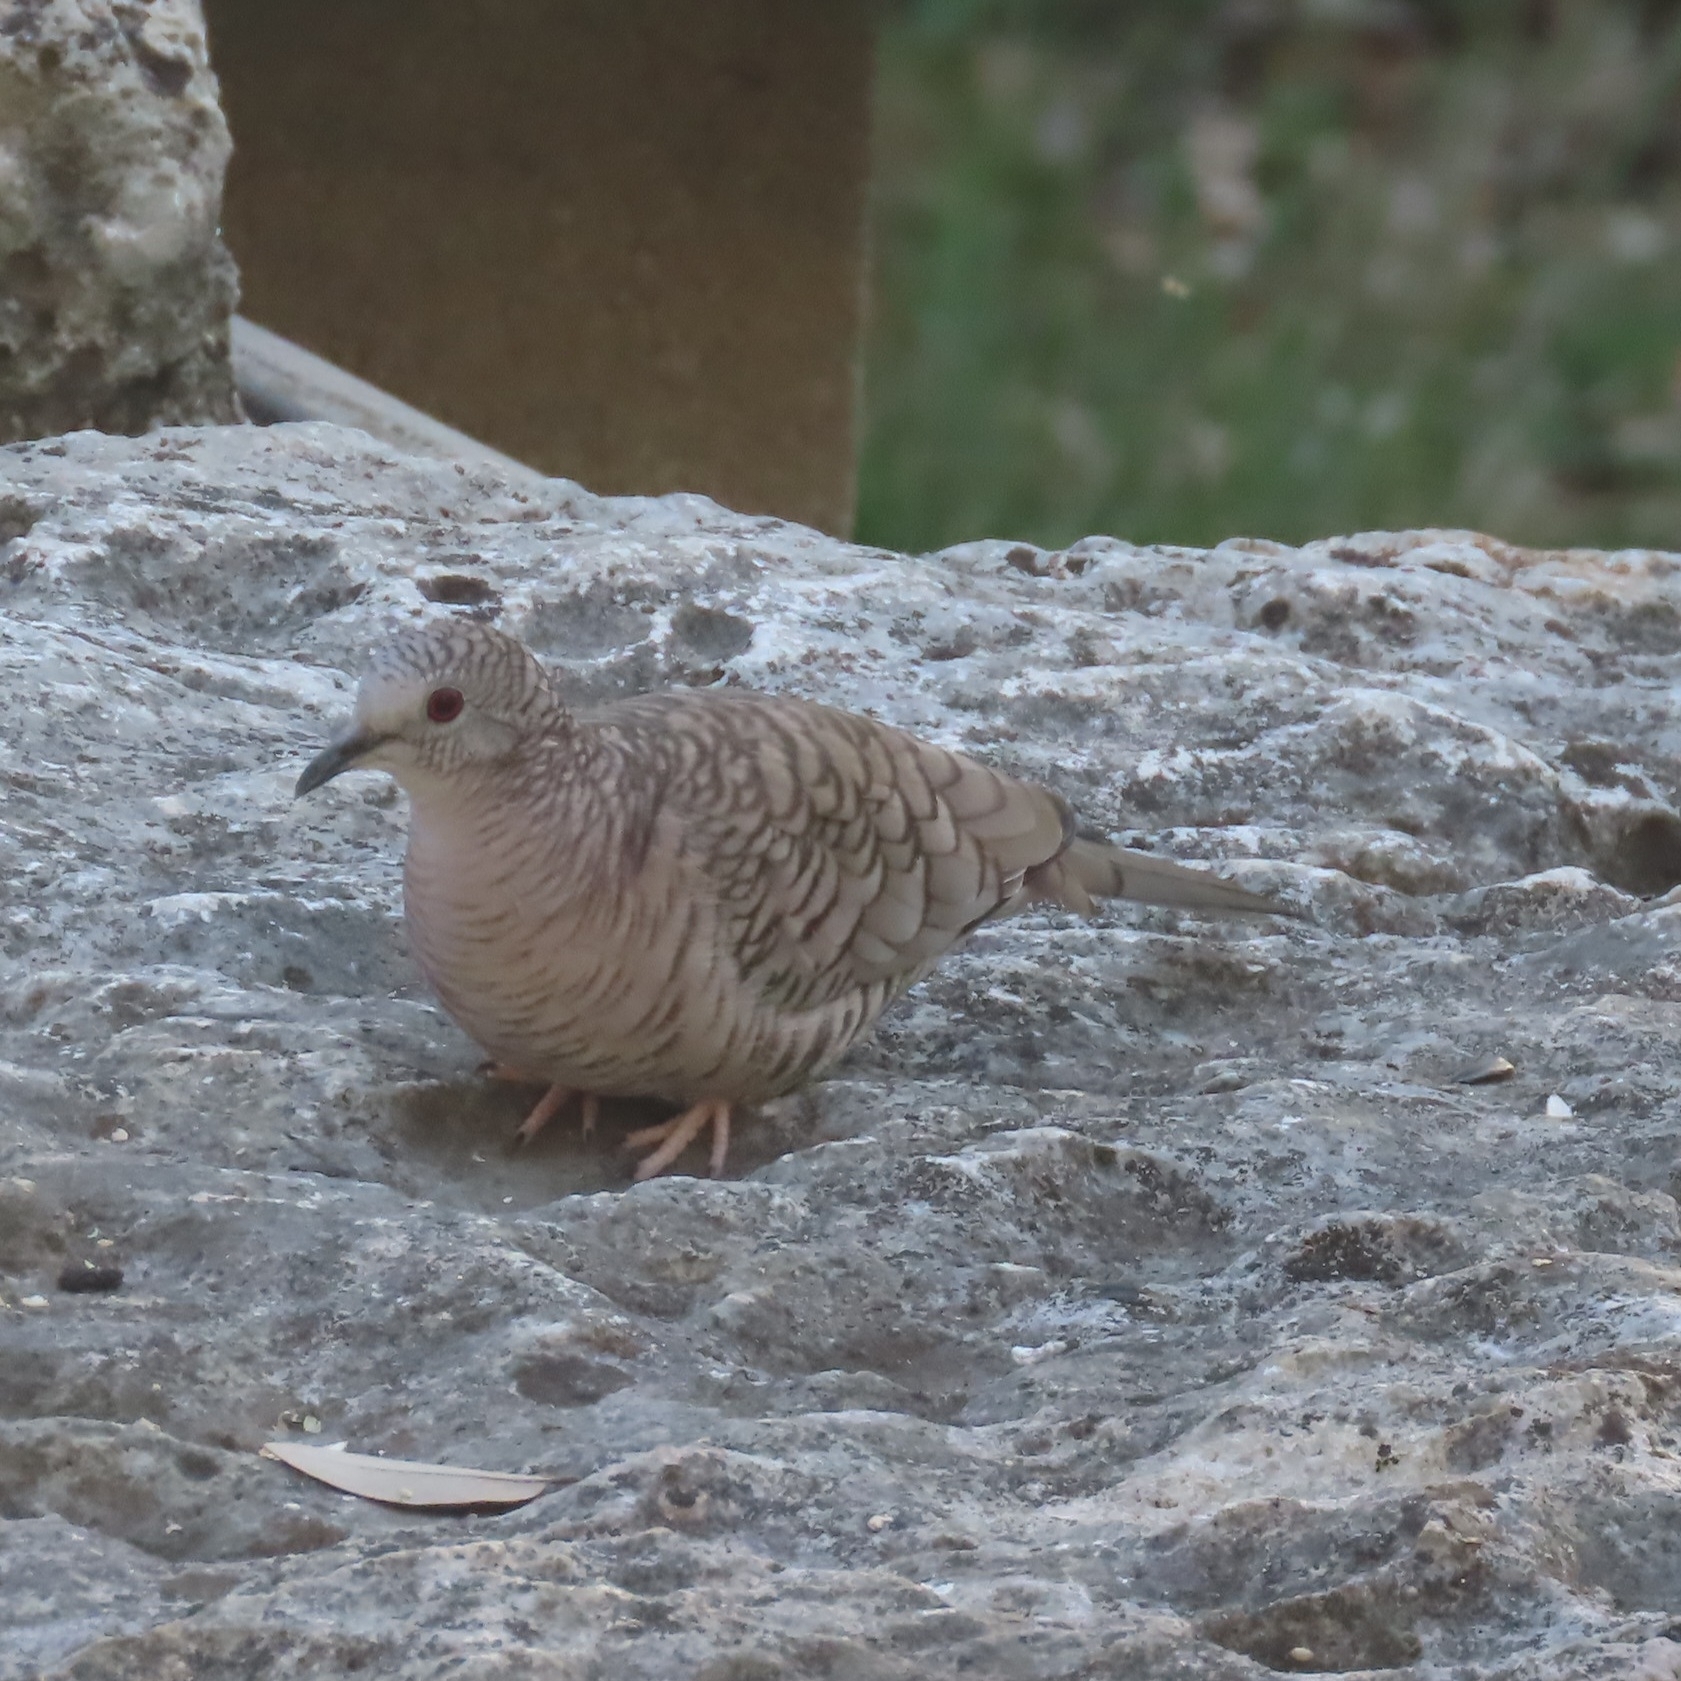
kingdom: Animalia
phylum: Chordata
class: Aves
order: Columbiformes
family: Columbidae
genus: Columbina
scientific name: Columbina inca
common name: Inca dove
